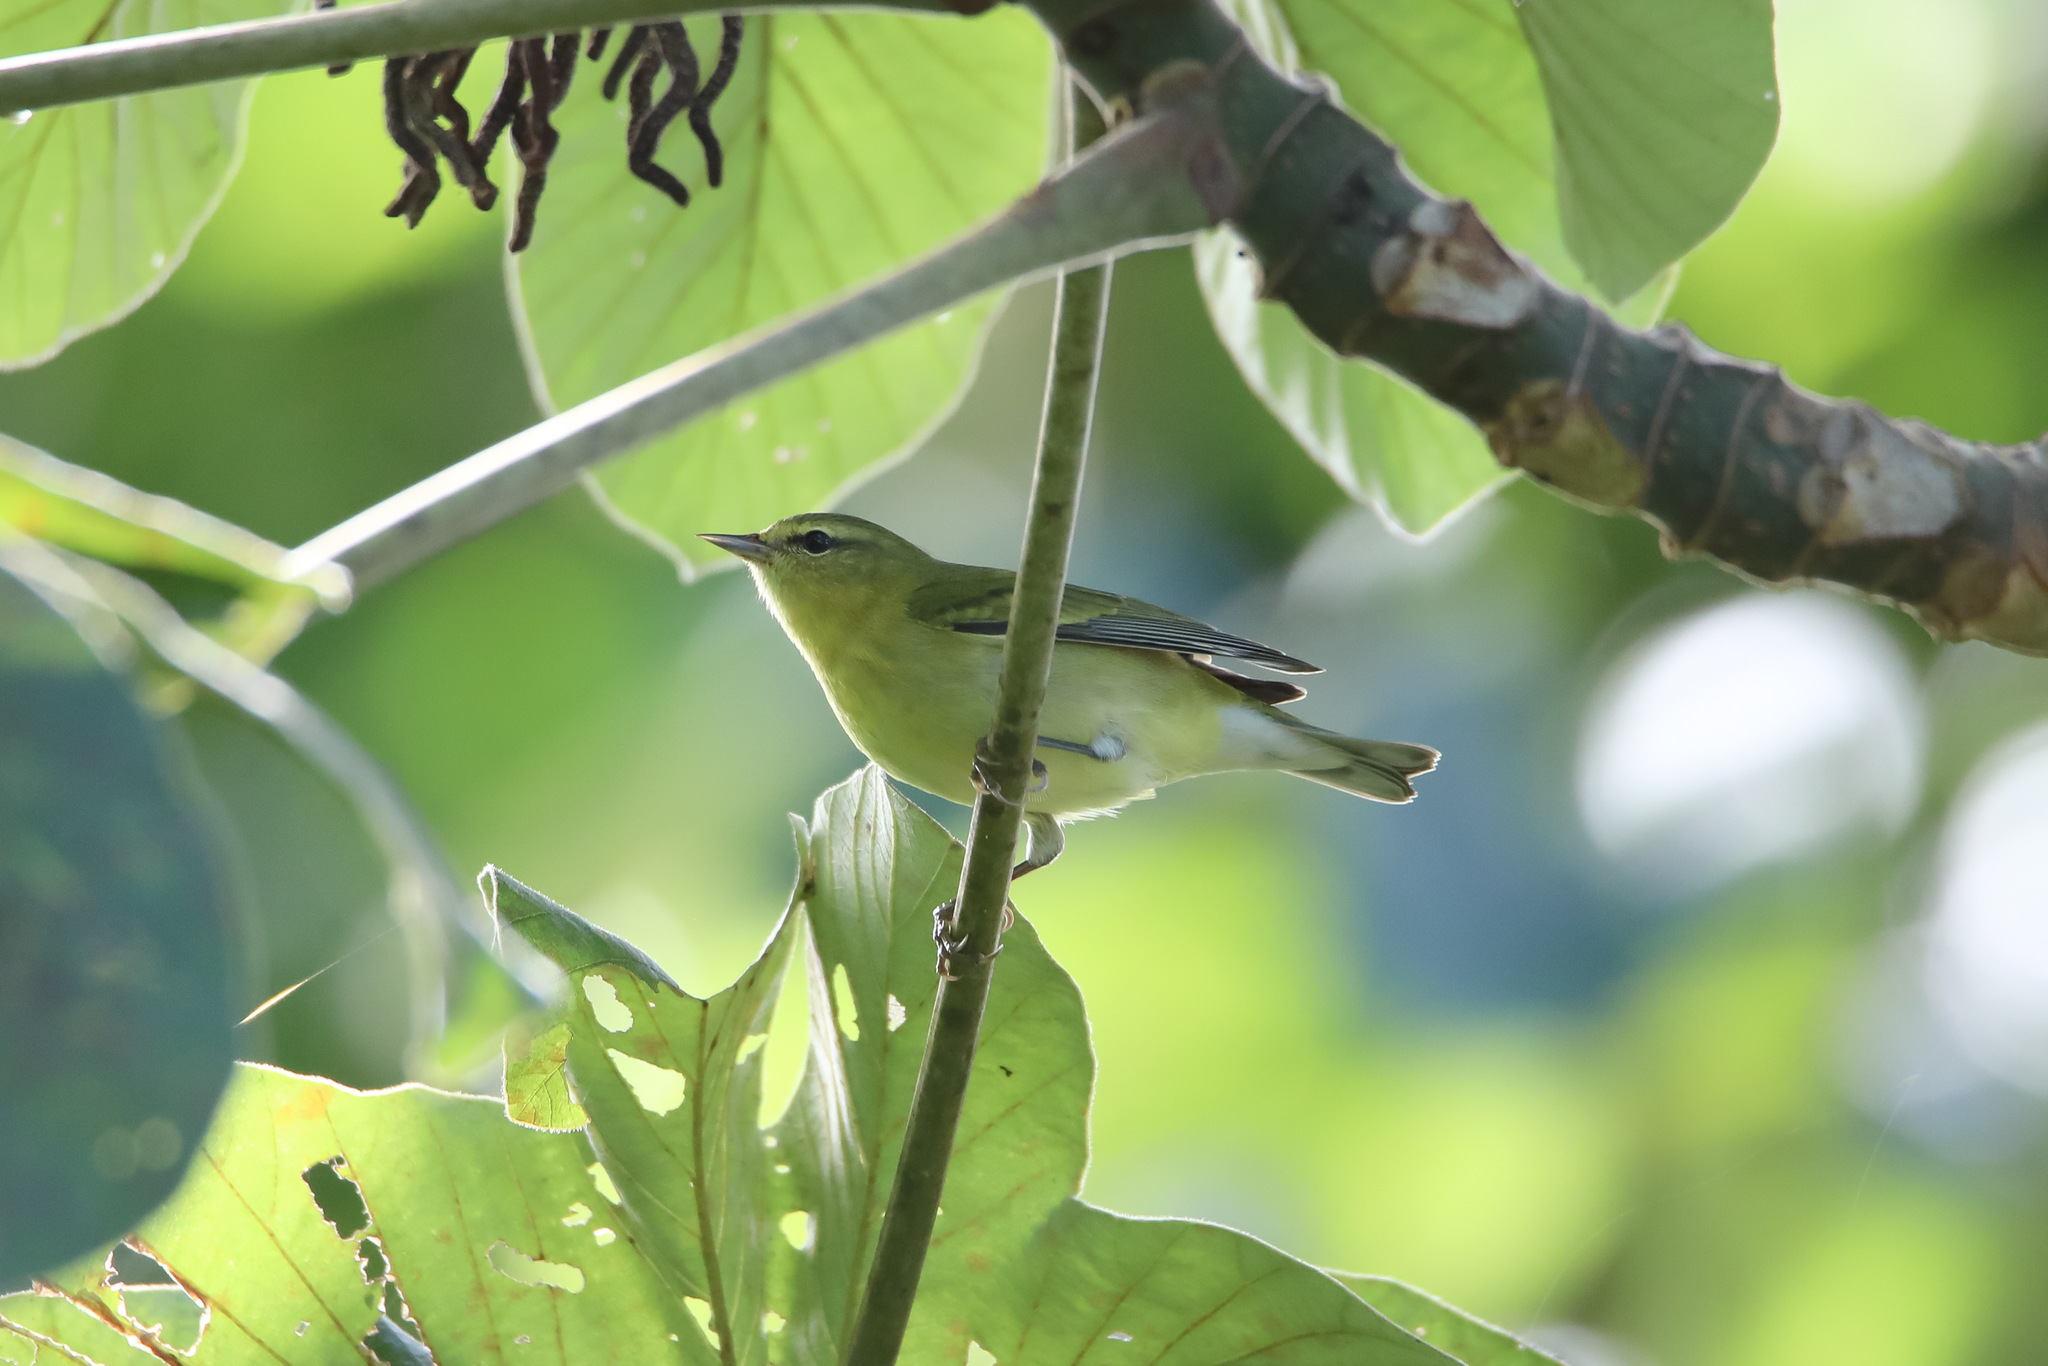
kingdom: Animalia
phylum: Chordata
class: Aves
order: Passeriformes
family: Parulidae
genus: Leiothlypis
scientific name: Leiothlypis peregrina
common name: Tennessee warbler
